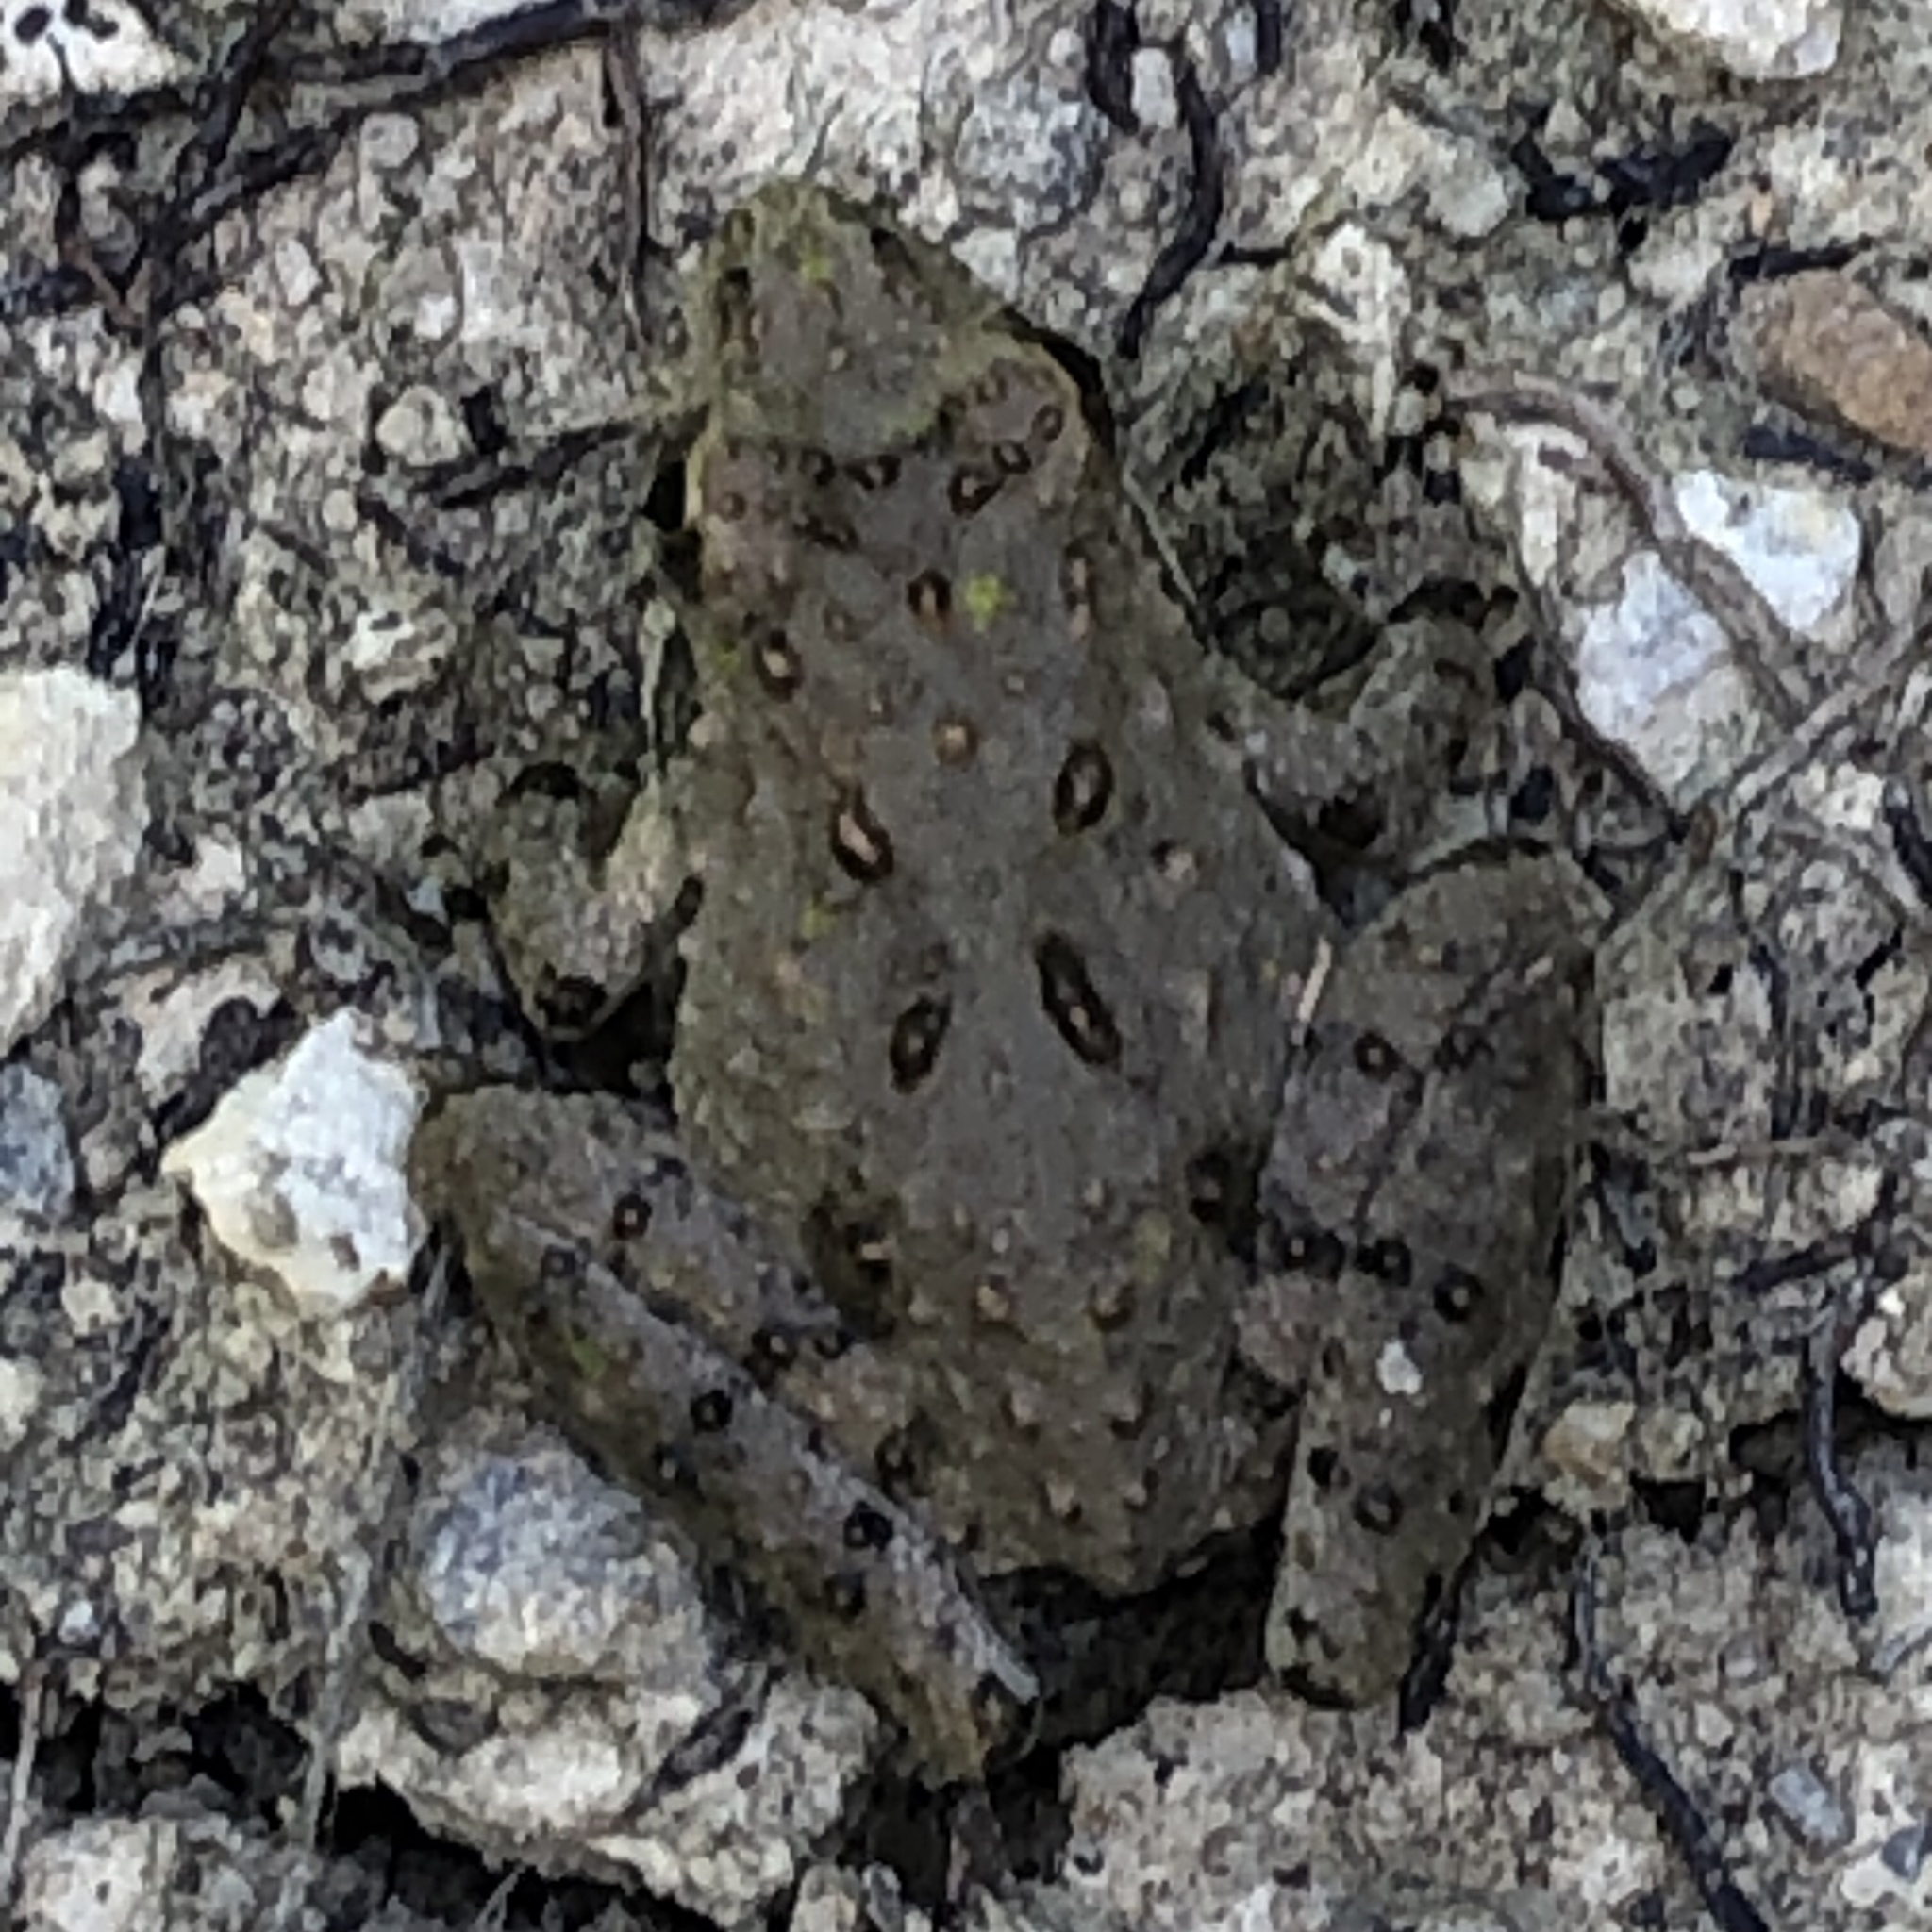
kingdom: Animalia
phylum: Chordata
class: Amphibia
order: Anura
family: Hylidae
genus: Acris
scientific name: Acris blanchardi
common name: Blanchard's cricket frog
